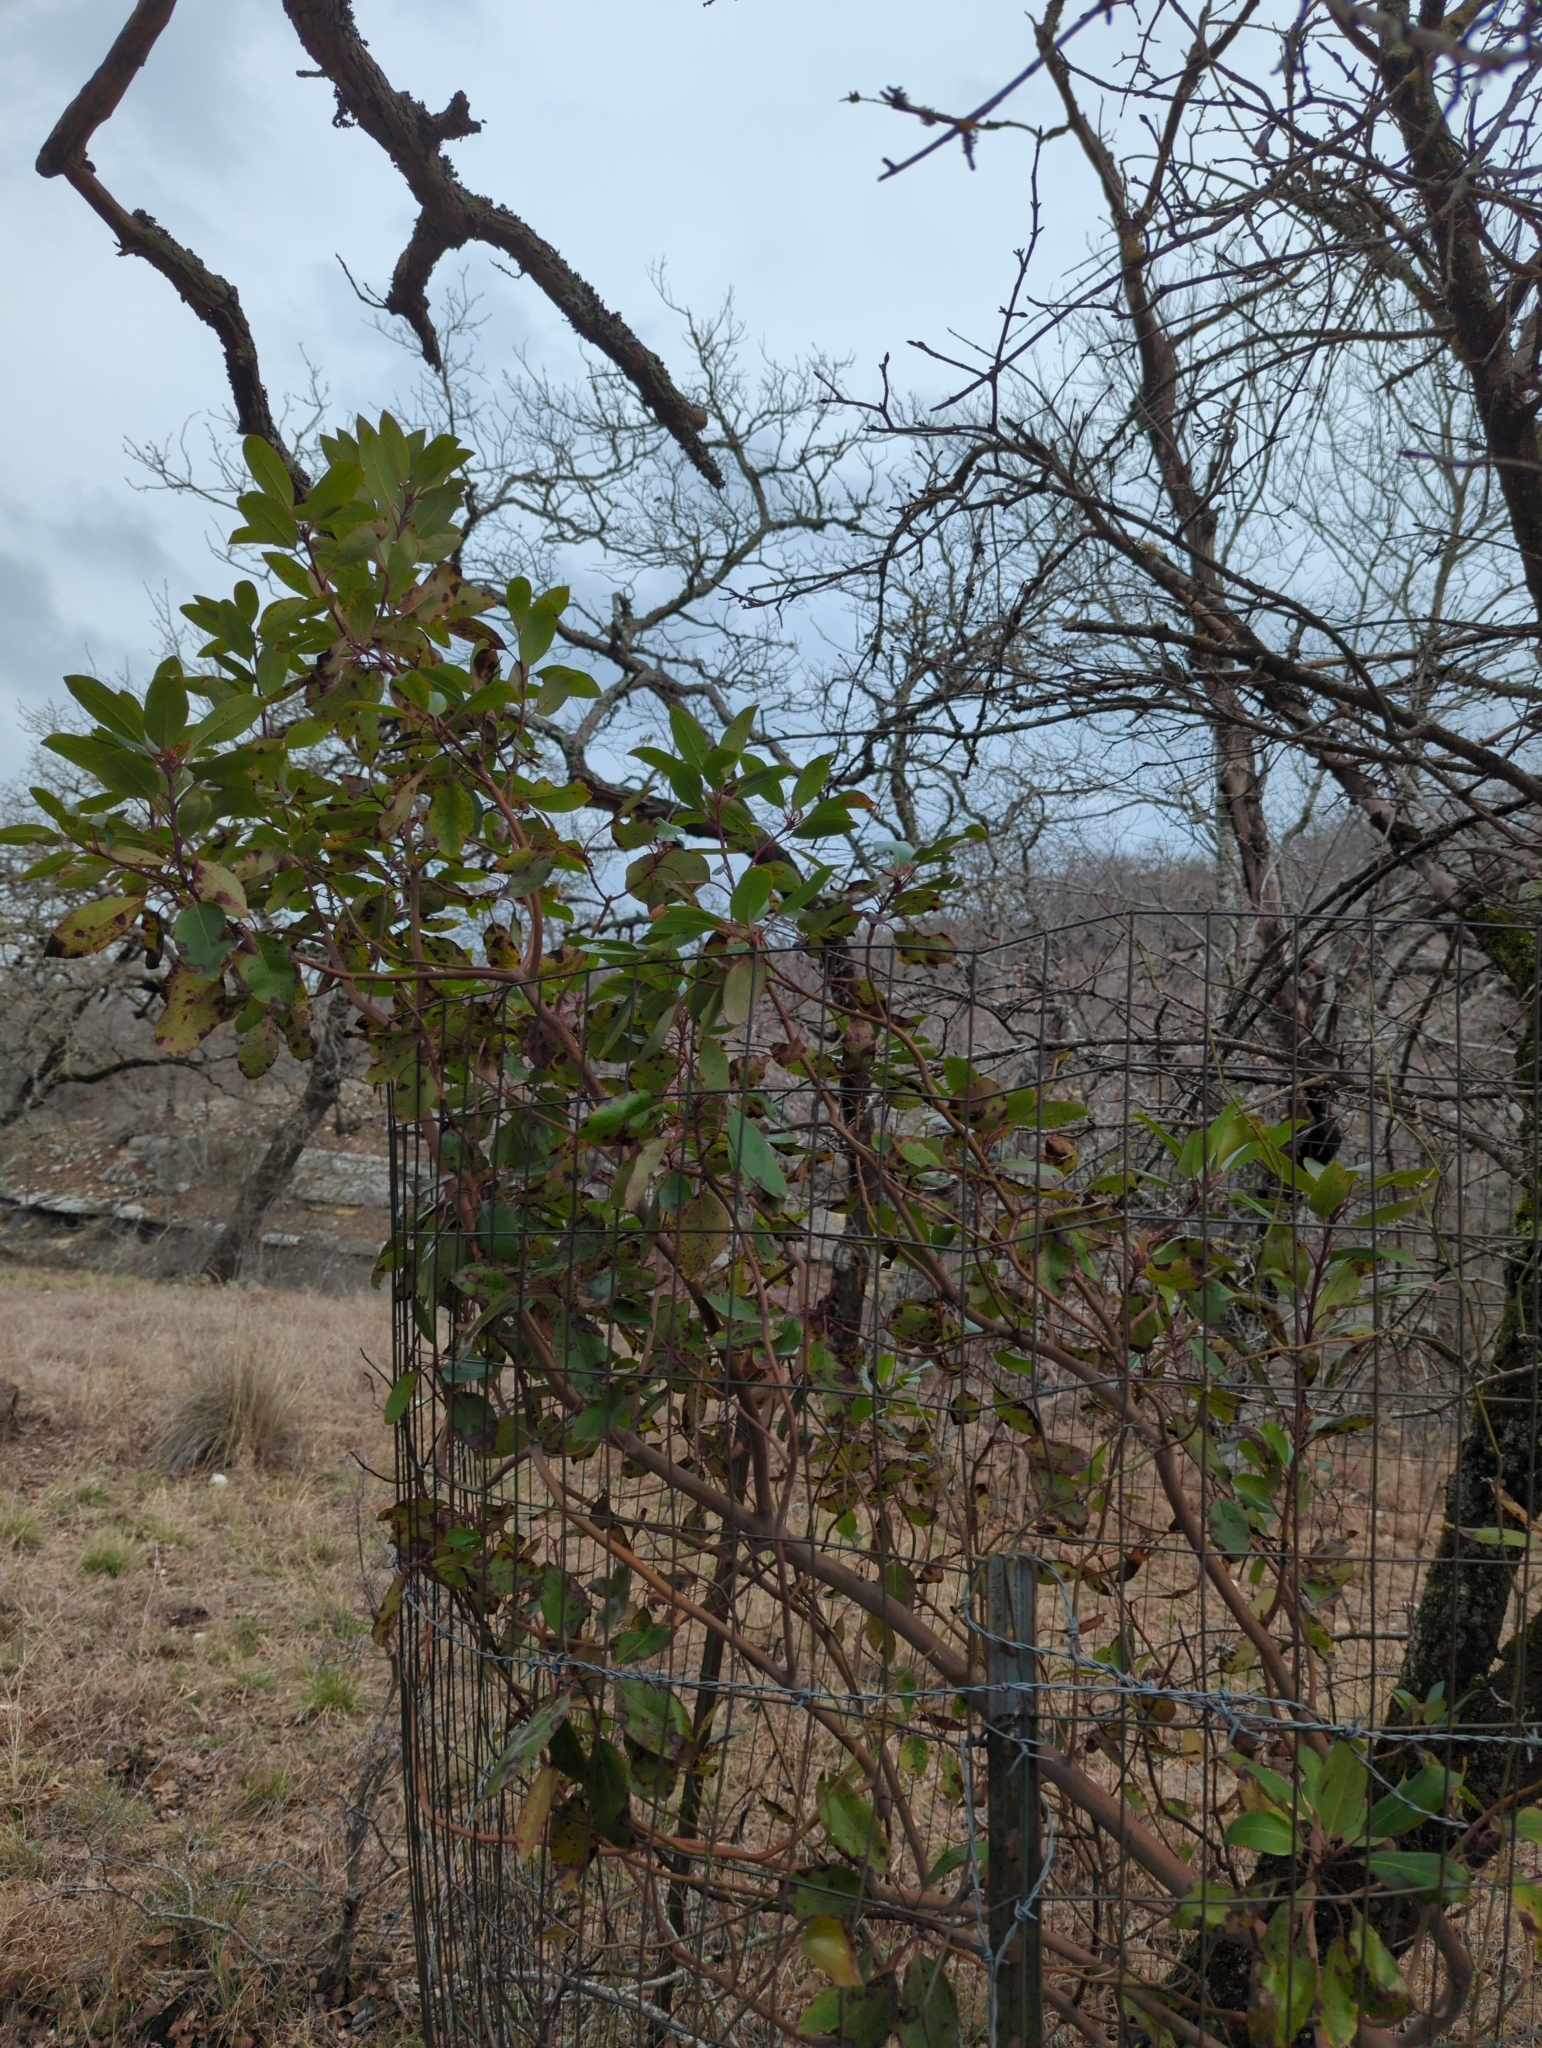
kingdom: Plantae
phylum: Tracheophyta
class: Magnoliopsida
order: Ericales
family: Ericaceae
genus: Arbutus
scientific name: Arbutus xalapensis
